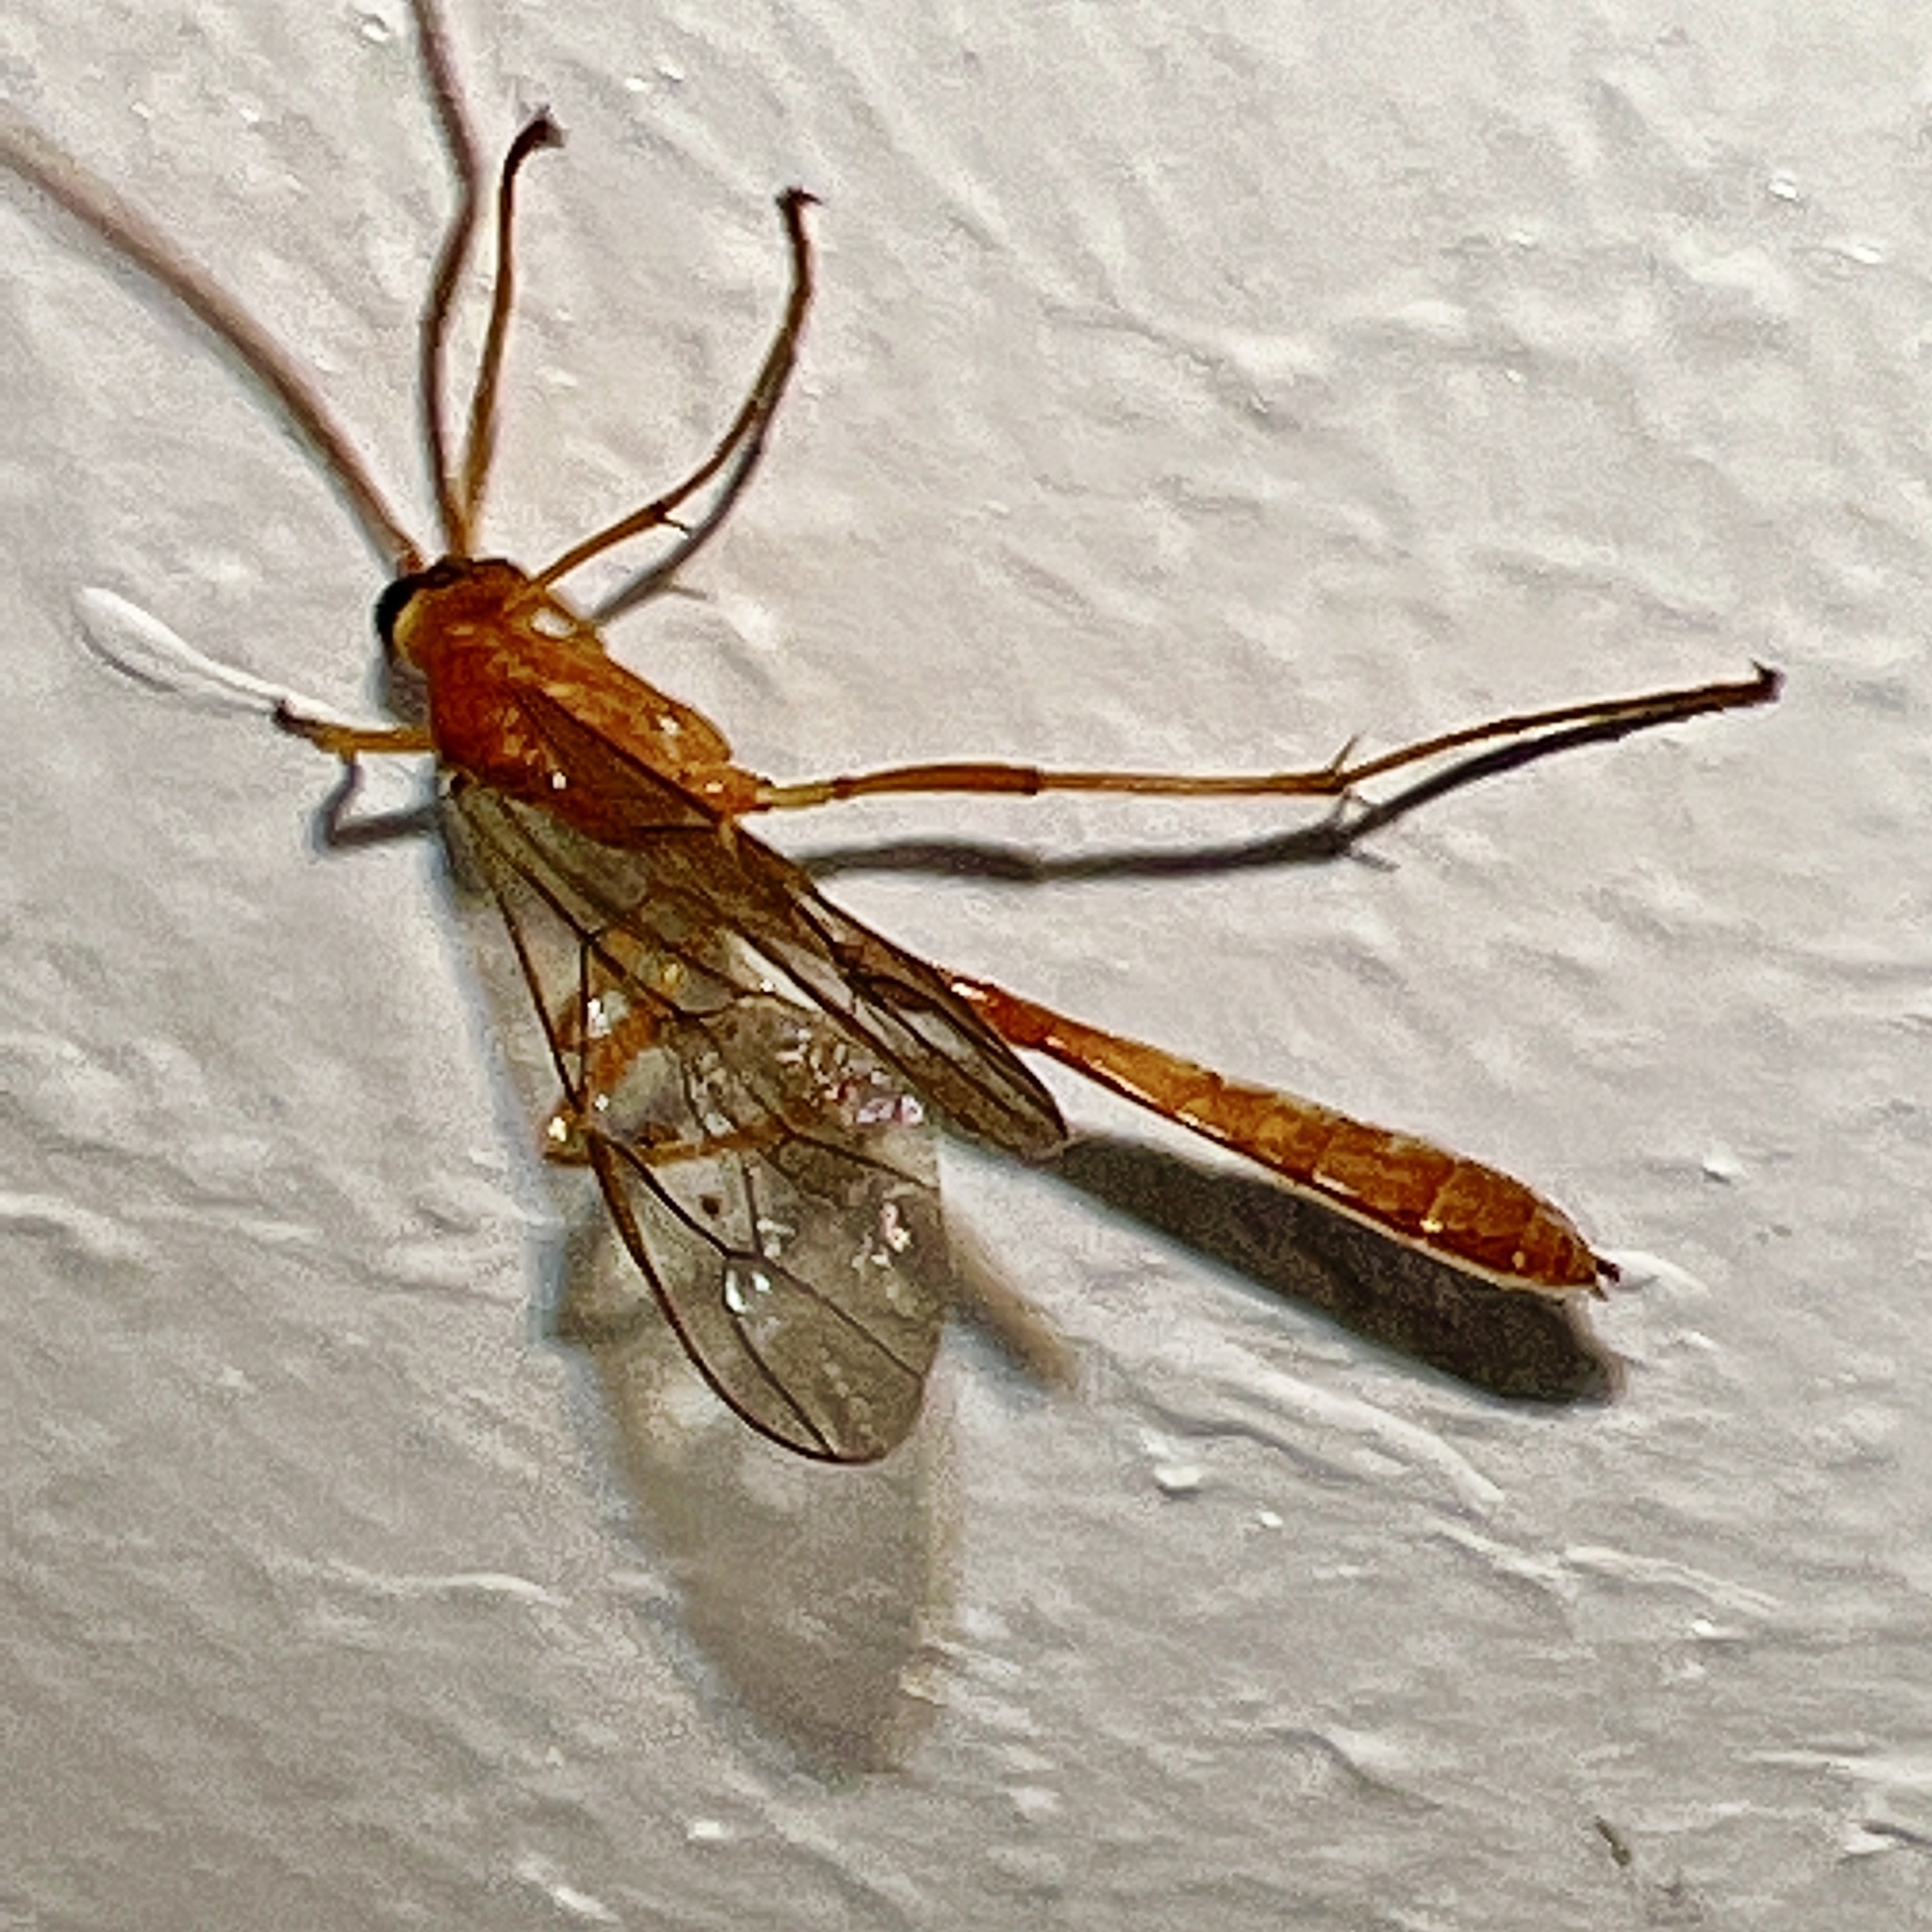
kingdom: Animalia
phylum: Arthropoda
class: Insecta
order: Hymenoptera
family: Ichneumonidae
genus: Enicospilus
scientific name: Enicospilus purgatus
